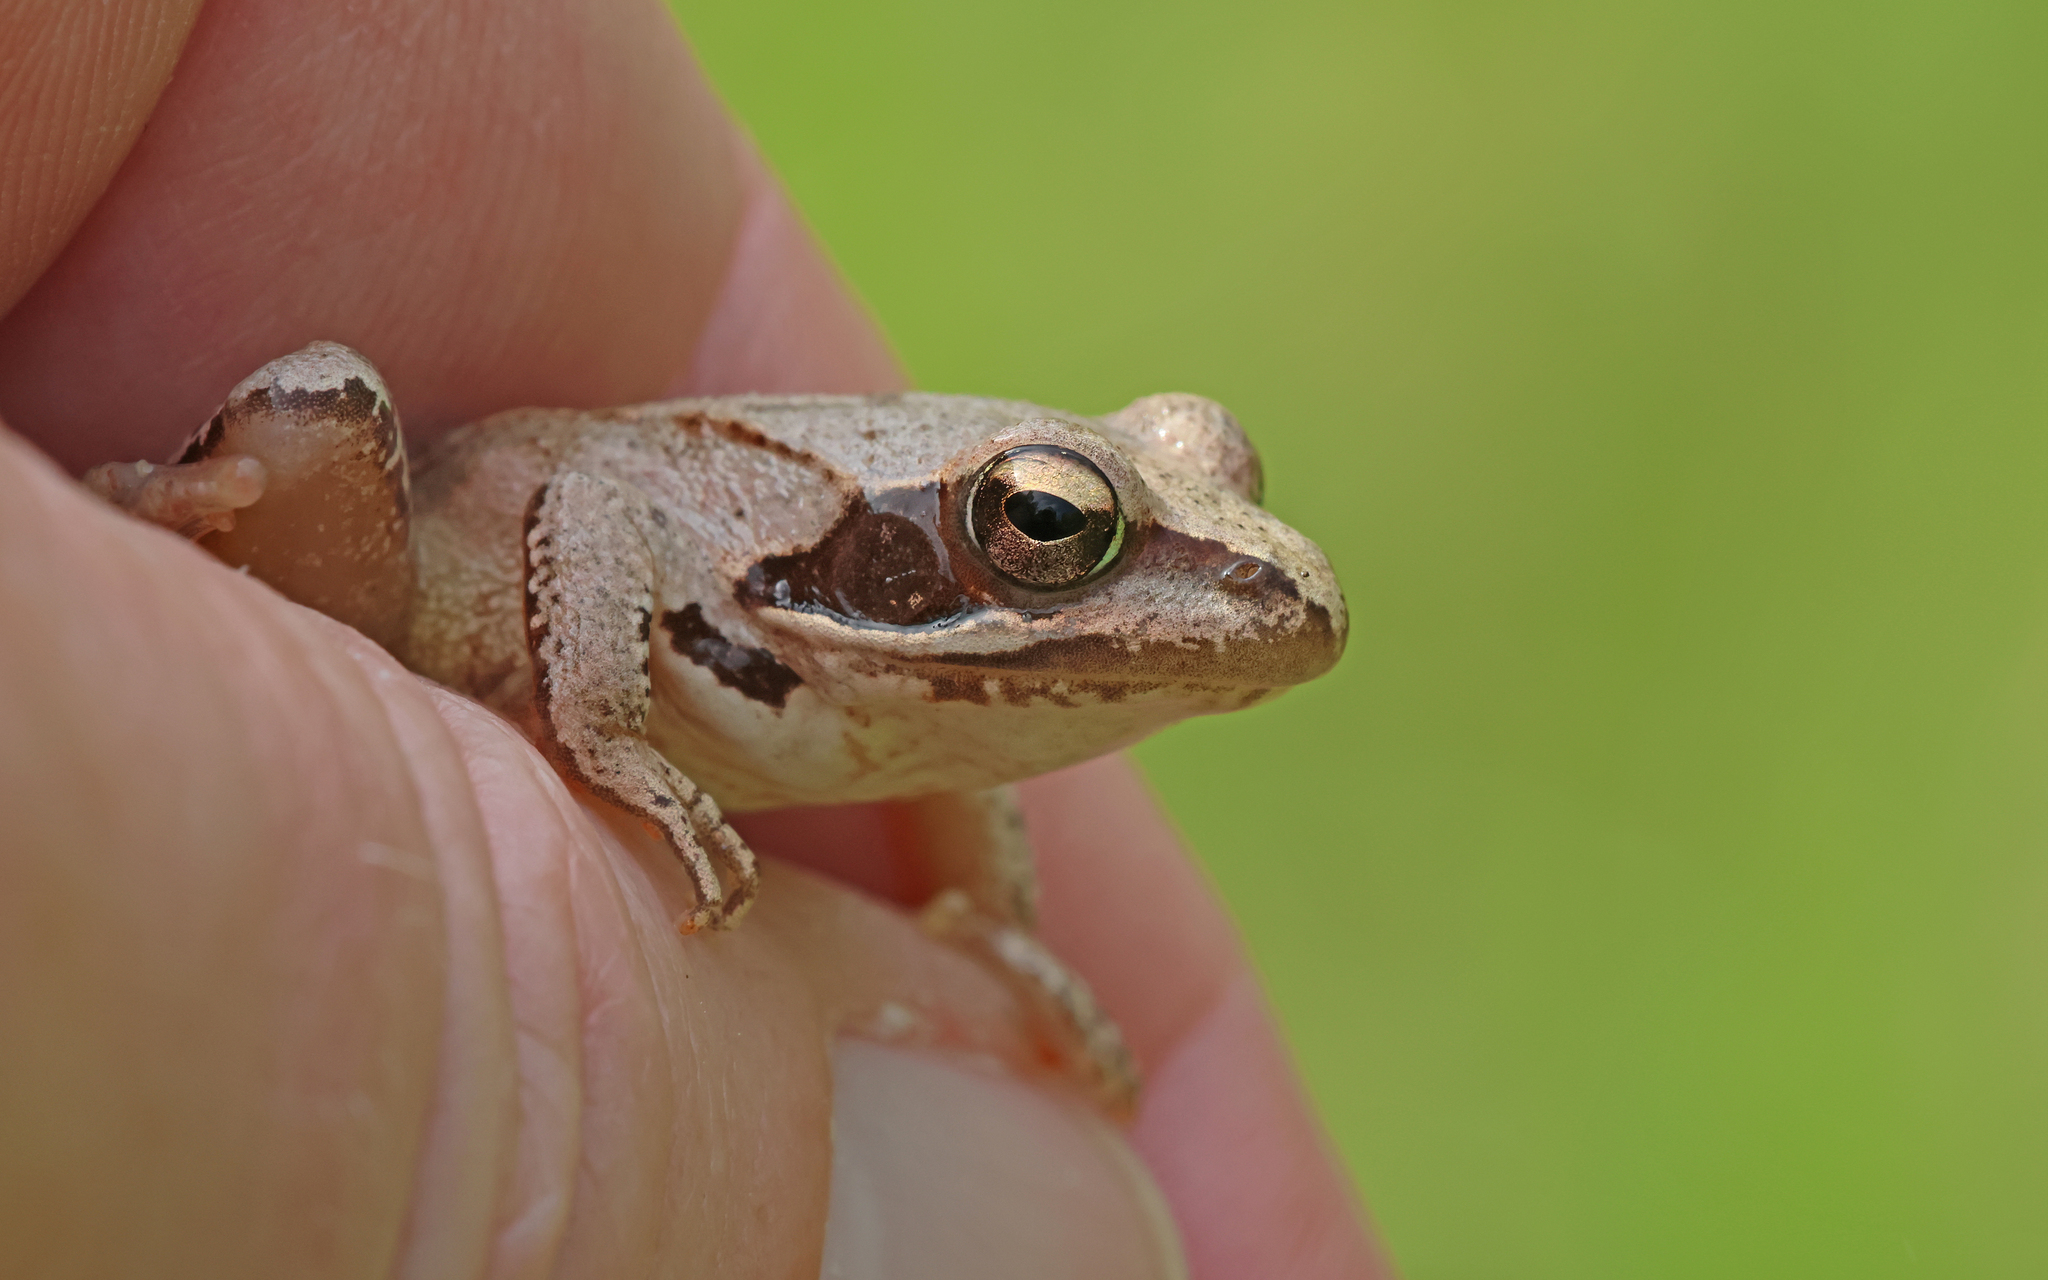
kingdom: Animalia
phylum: Chordata
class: Amphibia
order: Anura
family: Ranidae
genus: Rana
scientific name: Rana dalmatina
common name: Agile frog
